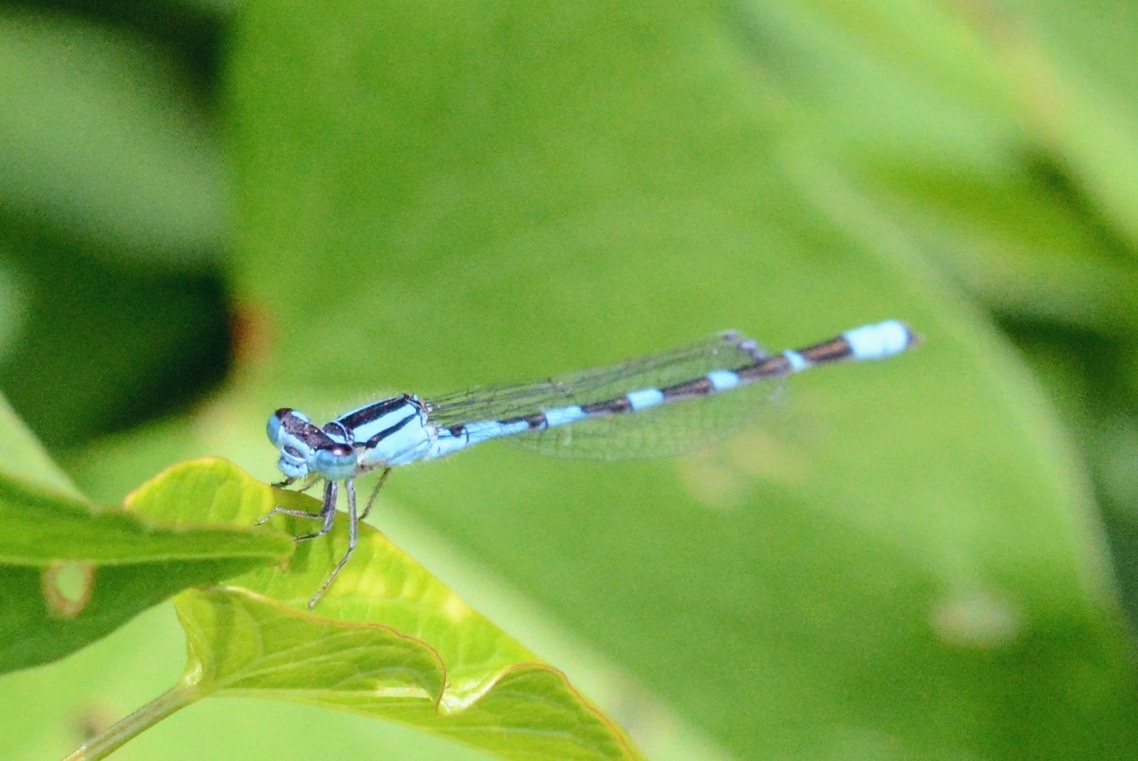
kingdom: Animalia
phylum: Arthropoda
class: Insecta
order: Odonata
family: Coenagrionidae
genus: Enallagma
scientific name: Enallagma carunculatum
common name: Tule bluet
